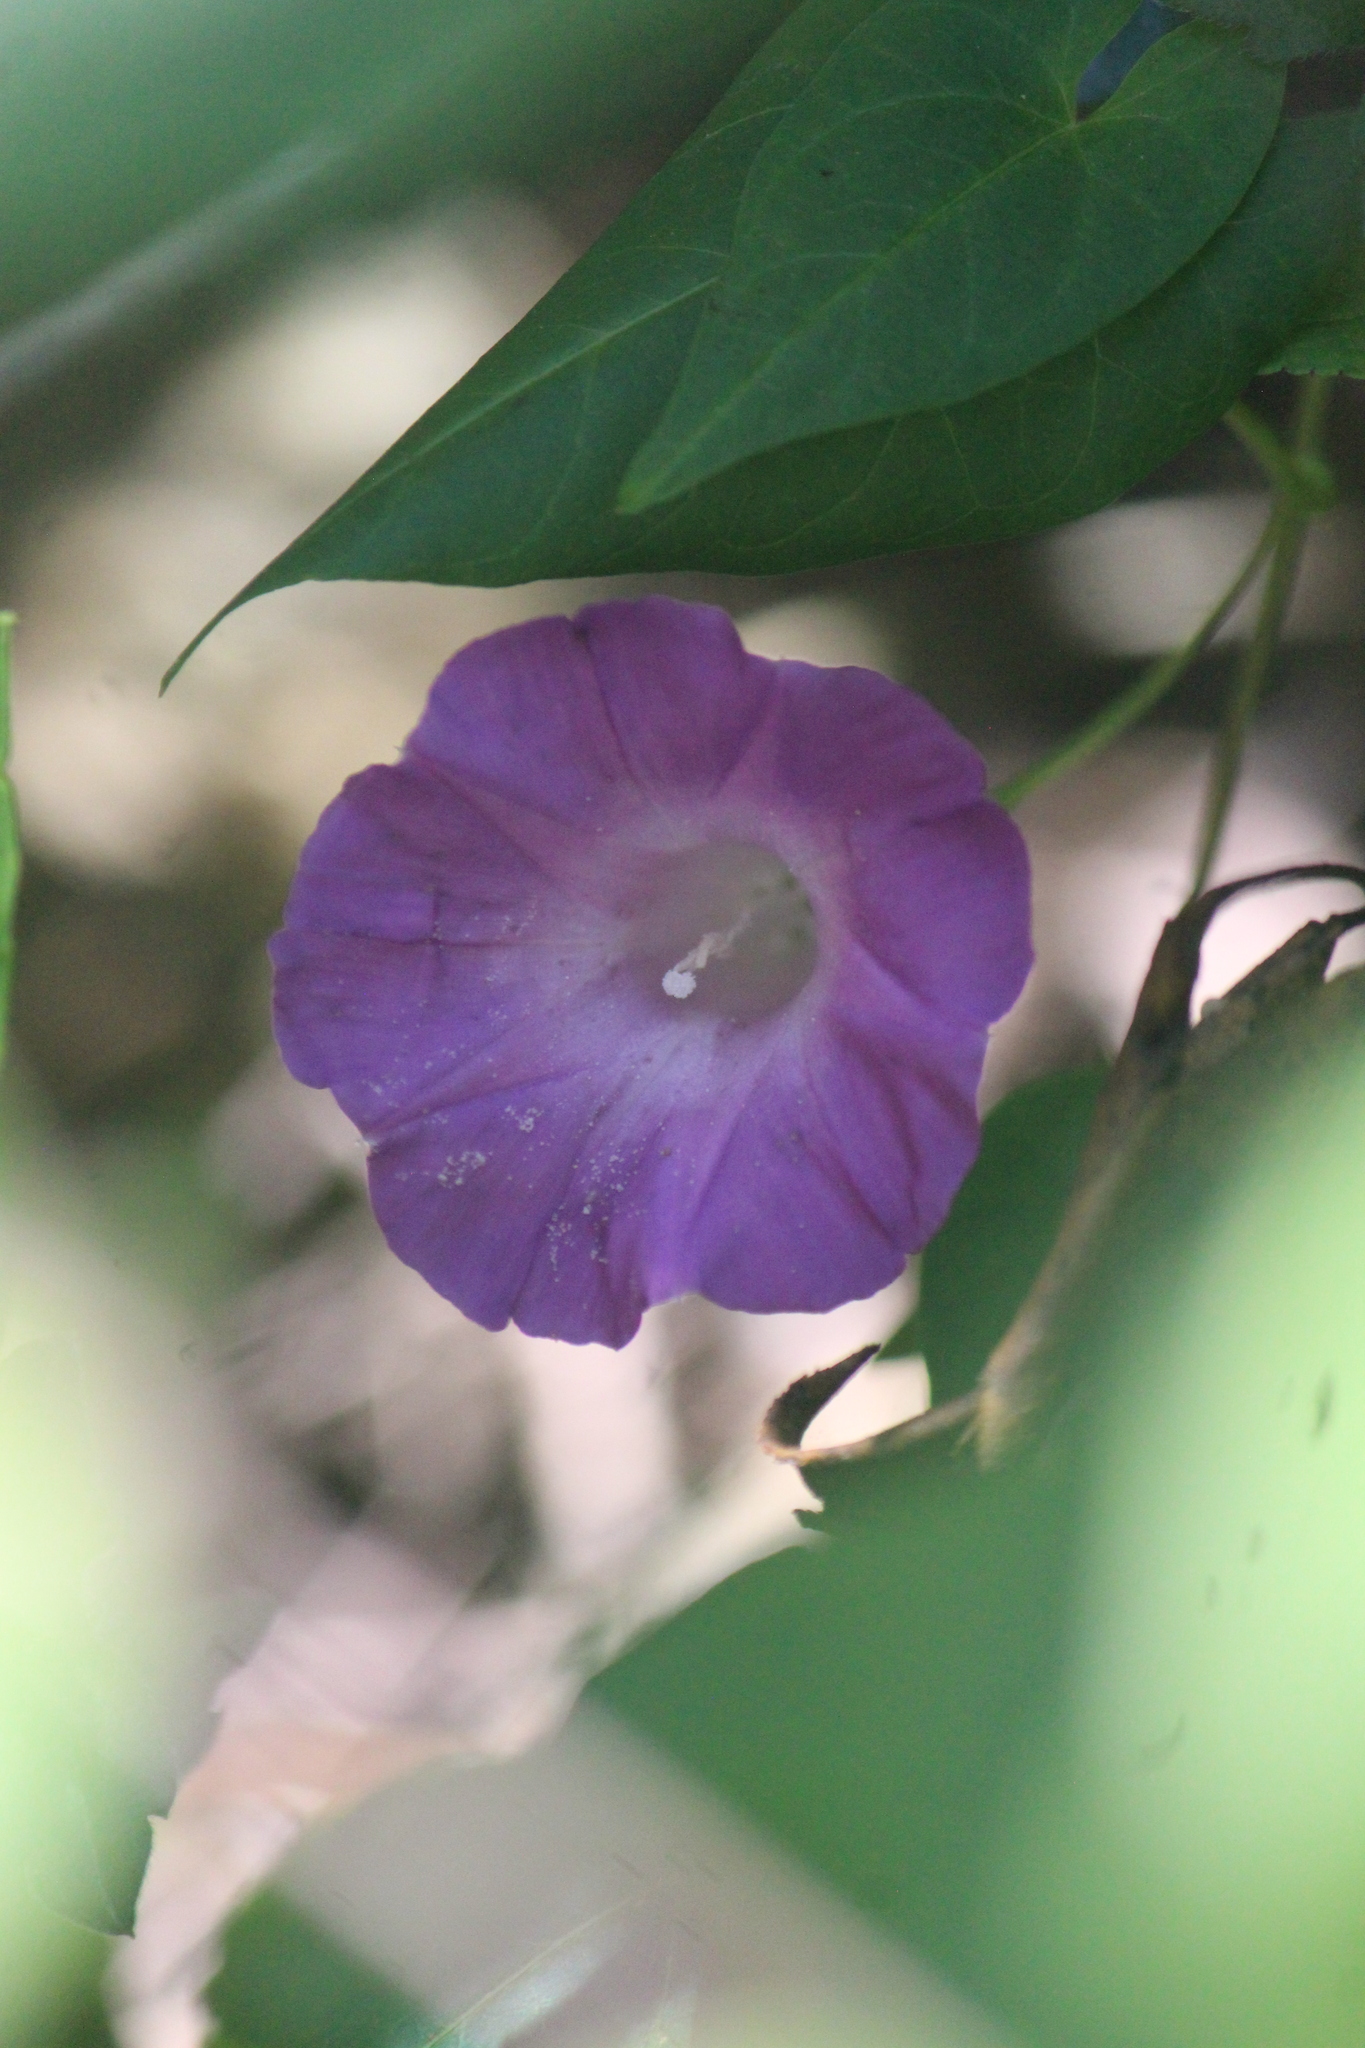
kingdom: Plantae
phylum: Tracheophyta
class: Magnoliopsida
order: Solanales
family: Convolvulaceae
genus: Ipomoea
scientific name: Ipomoea dumetorum
